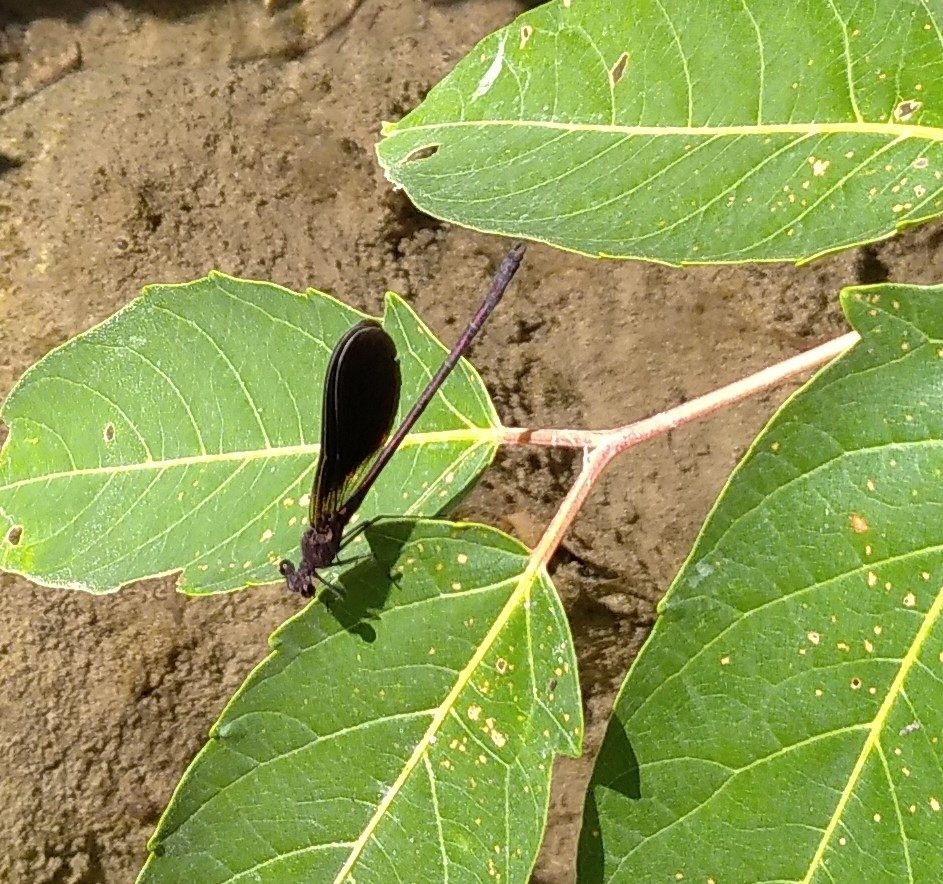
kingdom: Animalia
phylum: Arthropoda
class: Insecta
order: Odonata
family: Calopterygidae
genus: Calopteryx
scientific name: Calopteryx haemorrhoidalis
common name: Copper demoiselle
